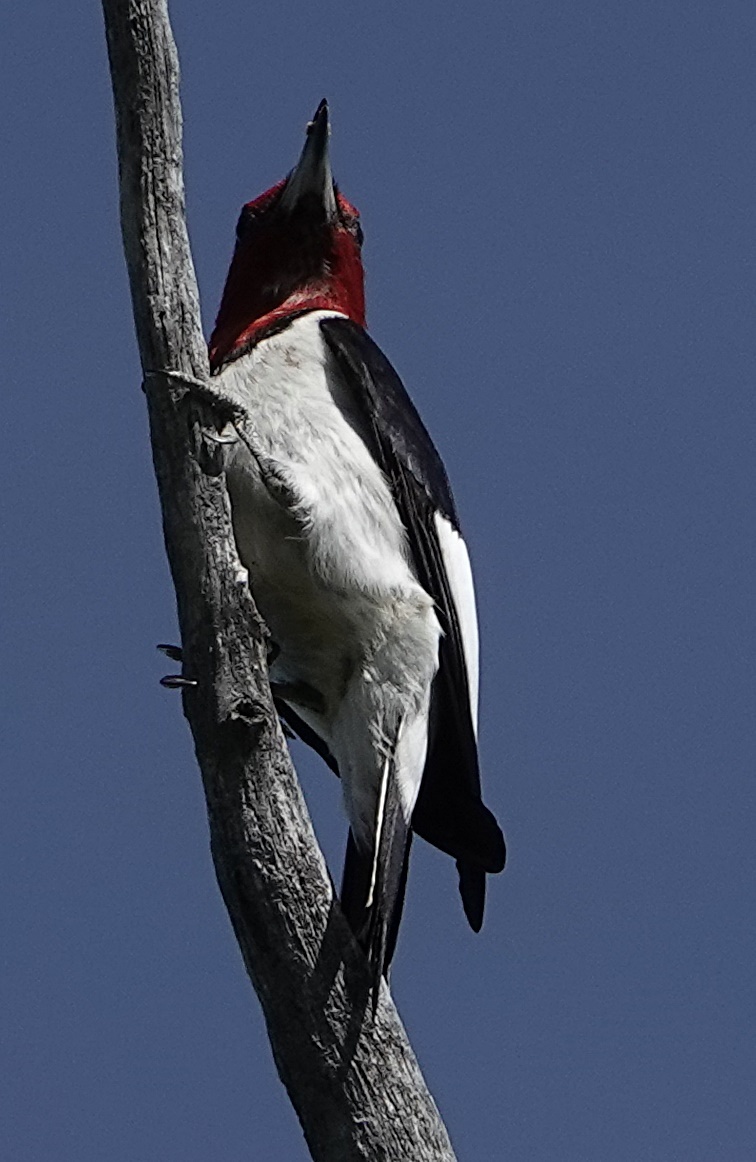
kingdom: Animalia
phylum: Chordata
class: Aves
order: Piciformes
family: Picidae
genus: Melanerpes
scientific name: Melanerpes erythrocephalus
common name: Red-headed woodpecker
